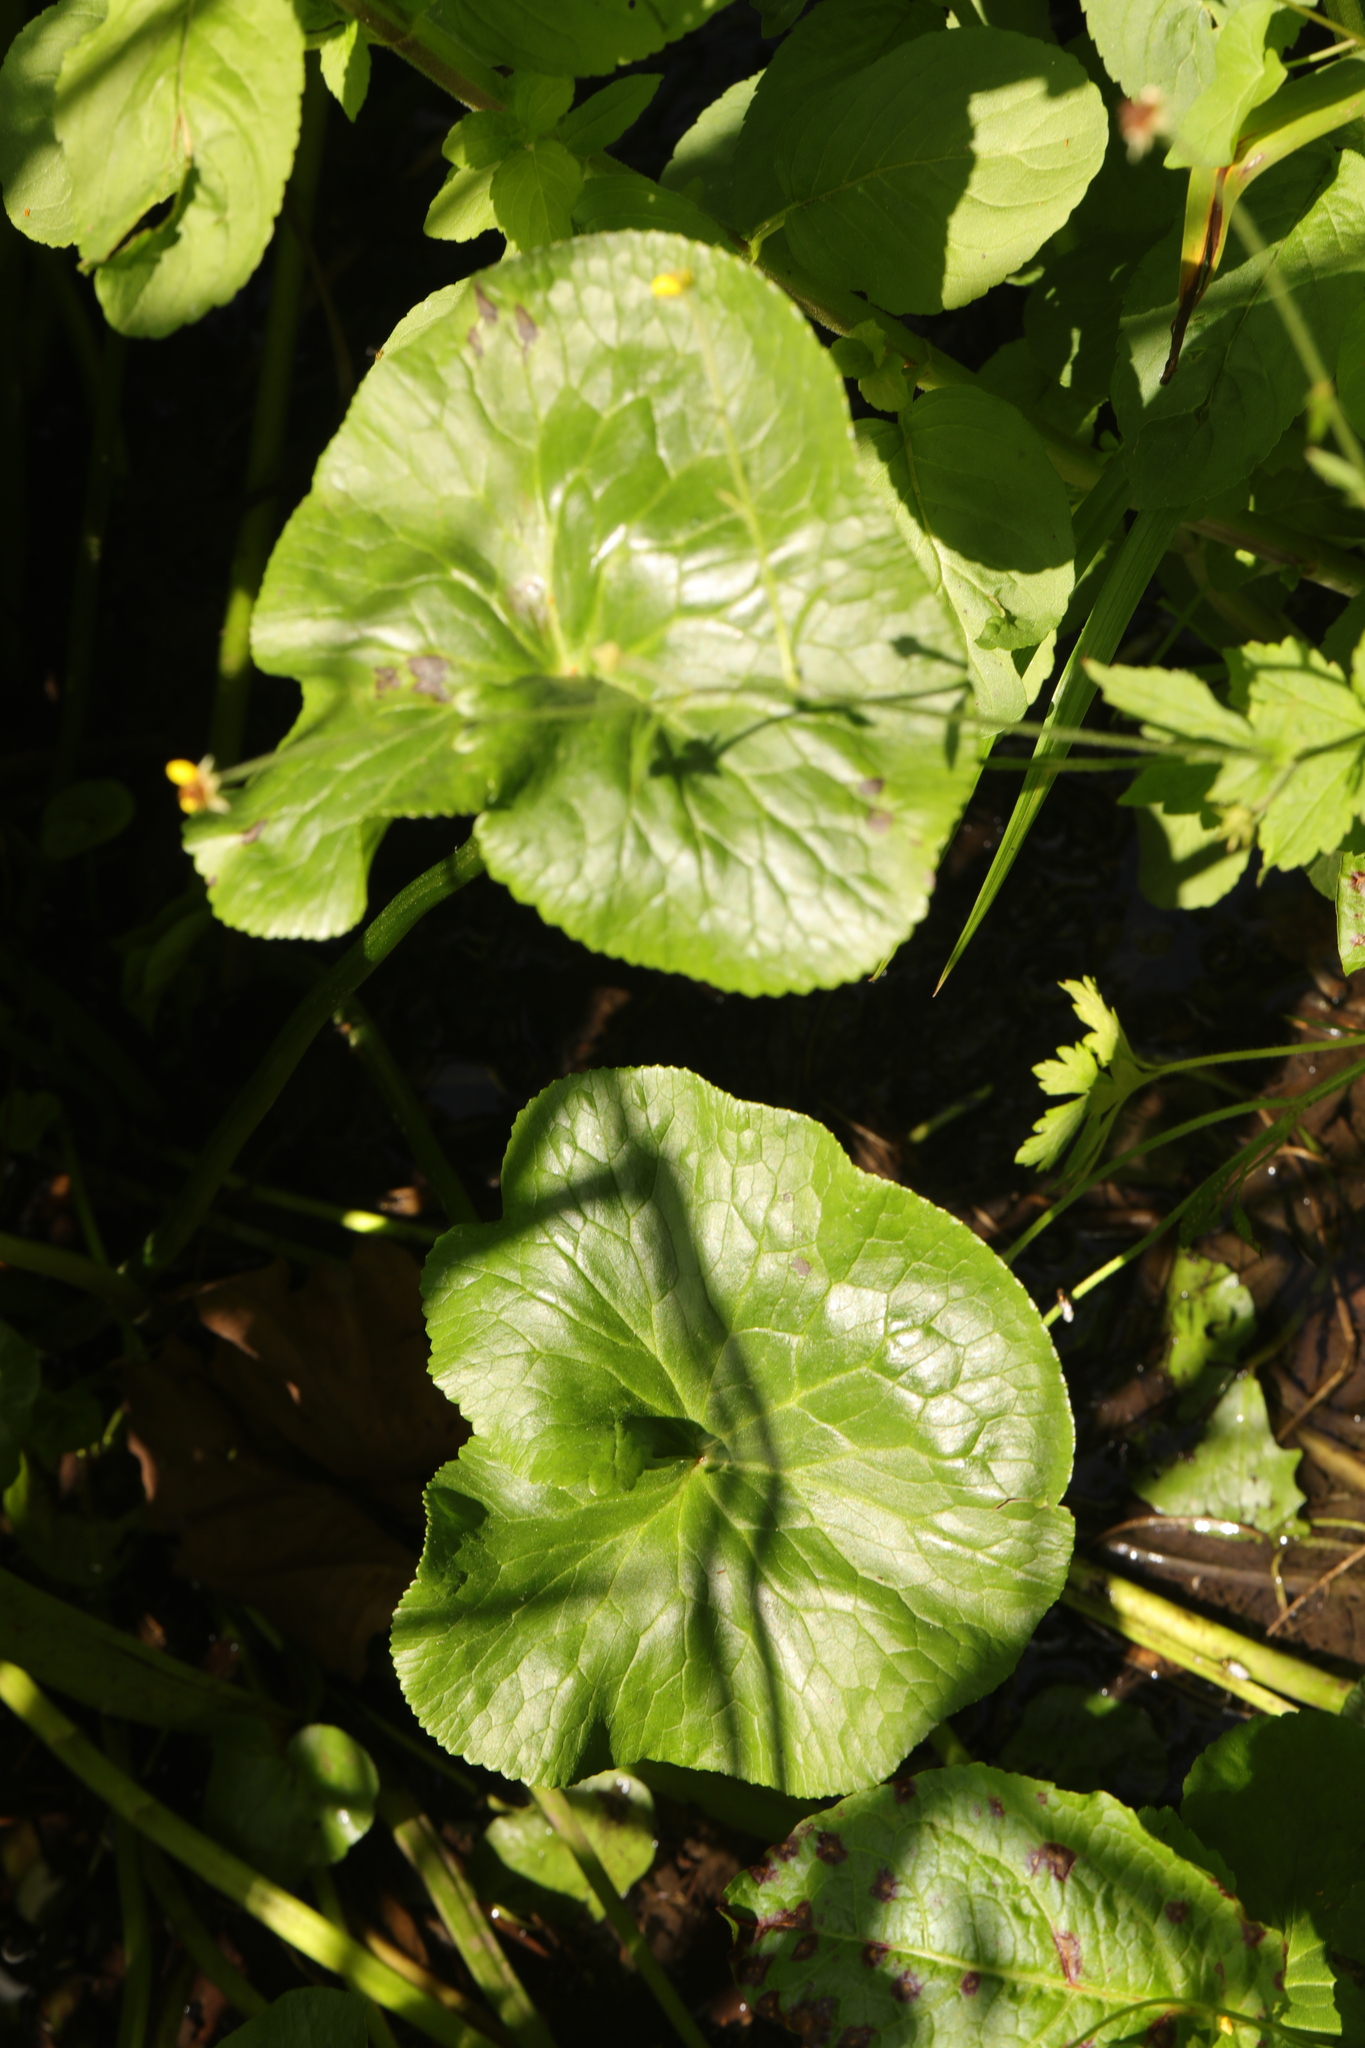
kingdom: Plantae
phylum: Tracheophyta
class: Magnoliopsida
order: Ranunculales
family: Ranunculaceae
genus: Caltha
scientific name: Caltha palustris
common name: Marsh marigold
